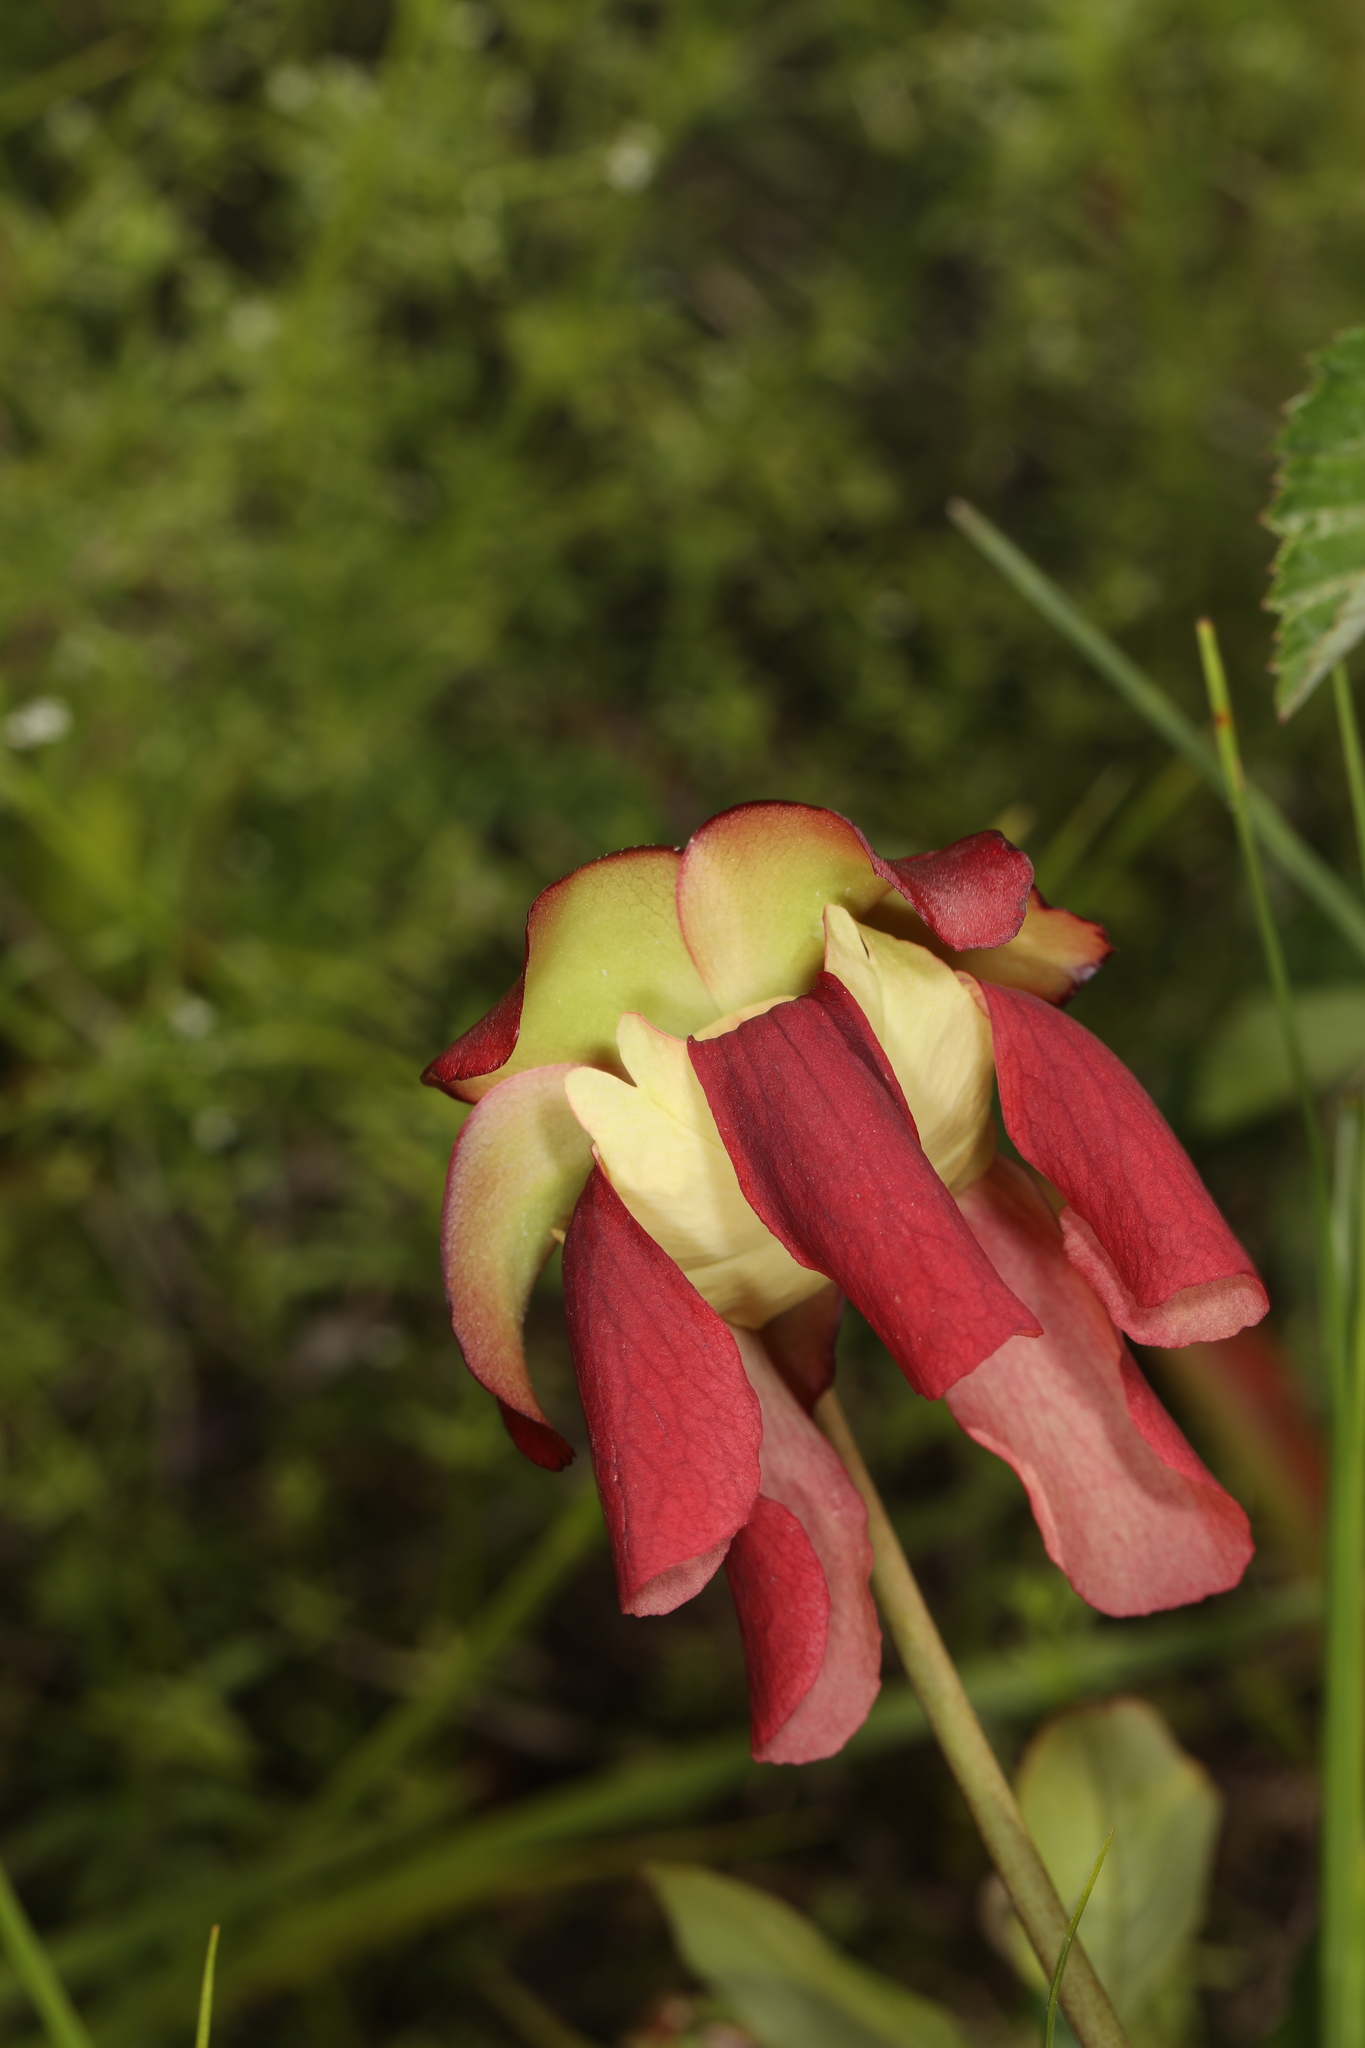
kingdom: Plantae
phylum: Tracheophyta
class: Magnoliopsida
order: Ericales
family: Sarraceniaceae
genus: Sarracenia
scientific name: Sarracenia psittacina
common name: Parrot pitcherplant
